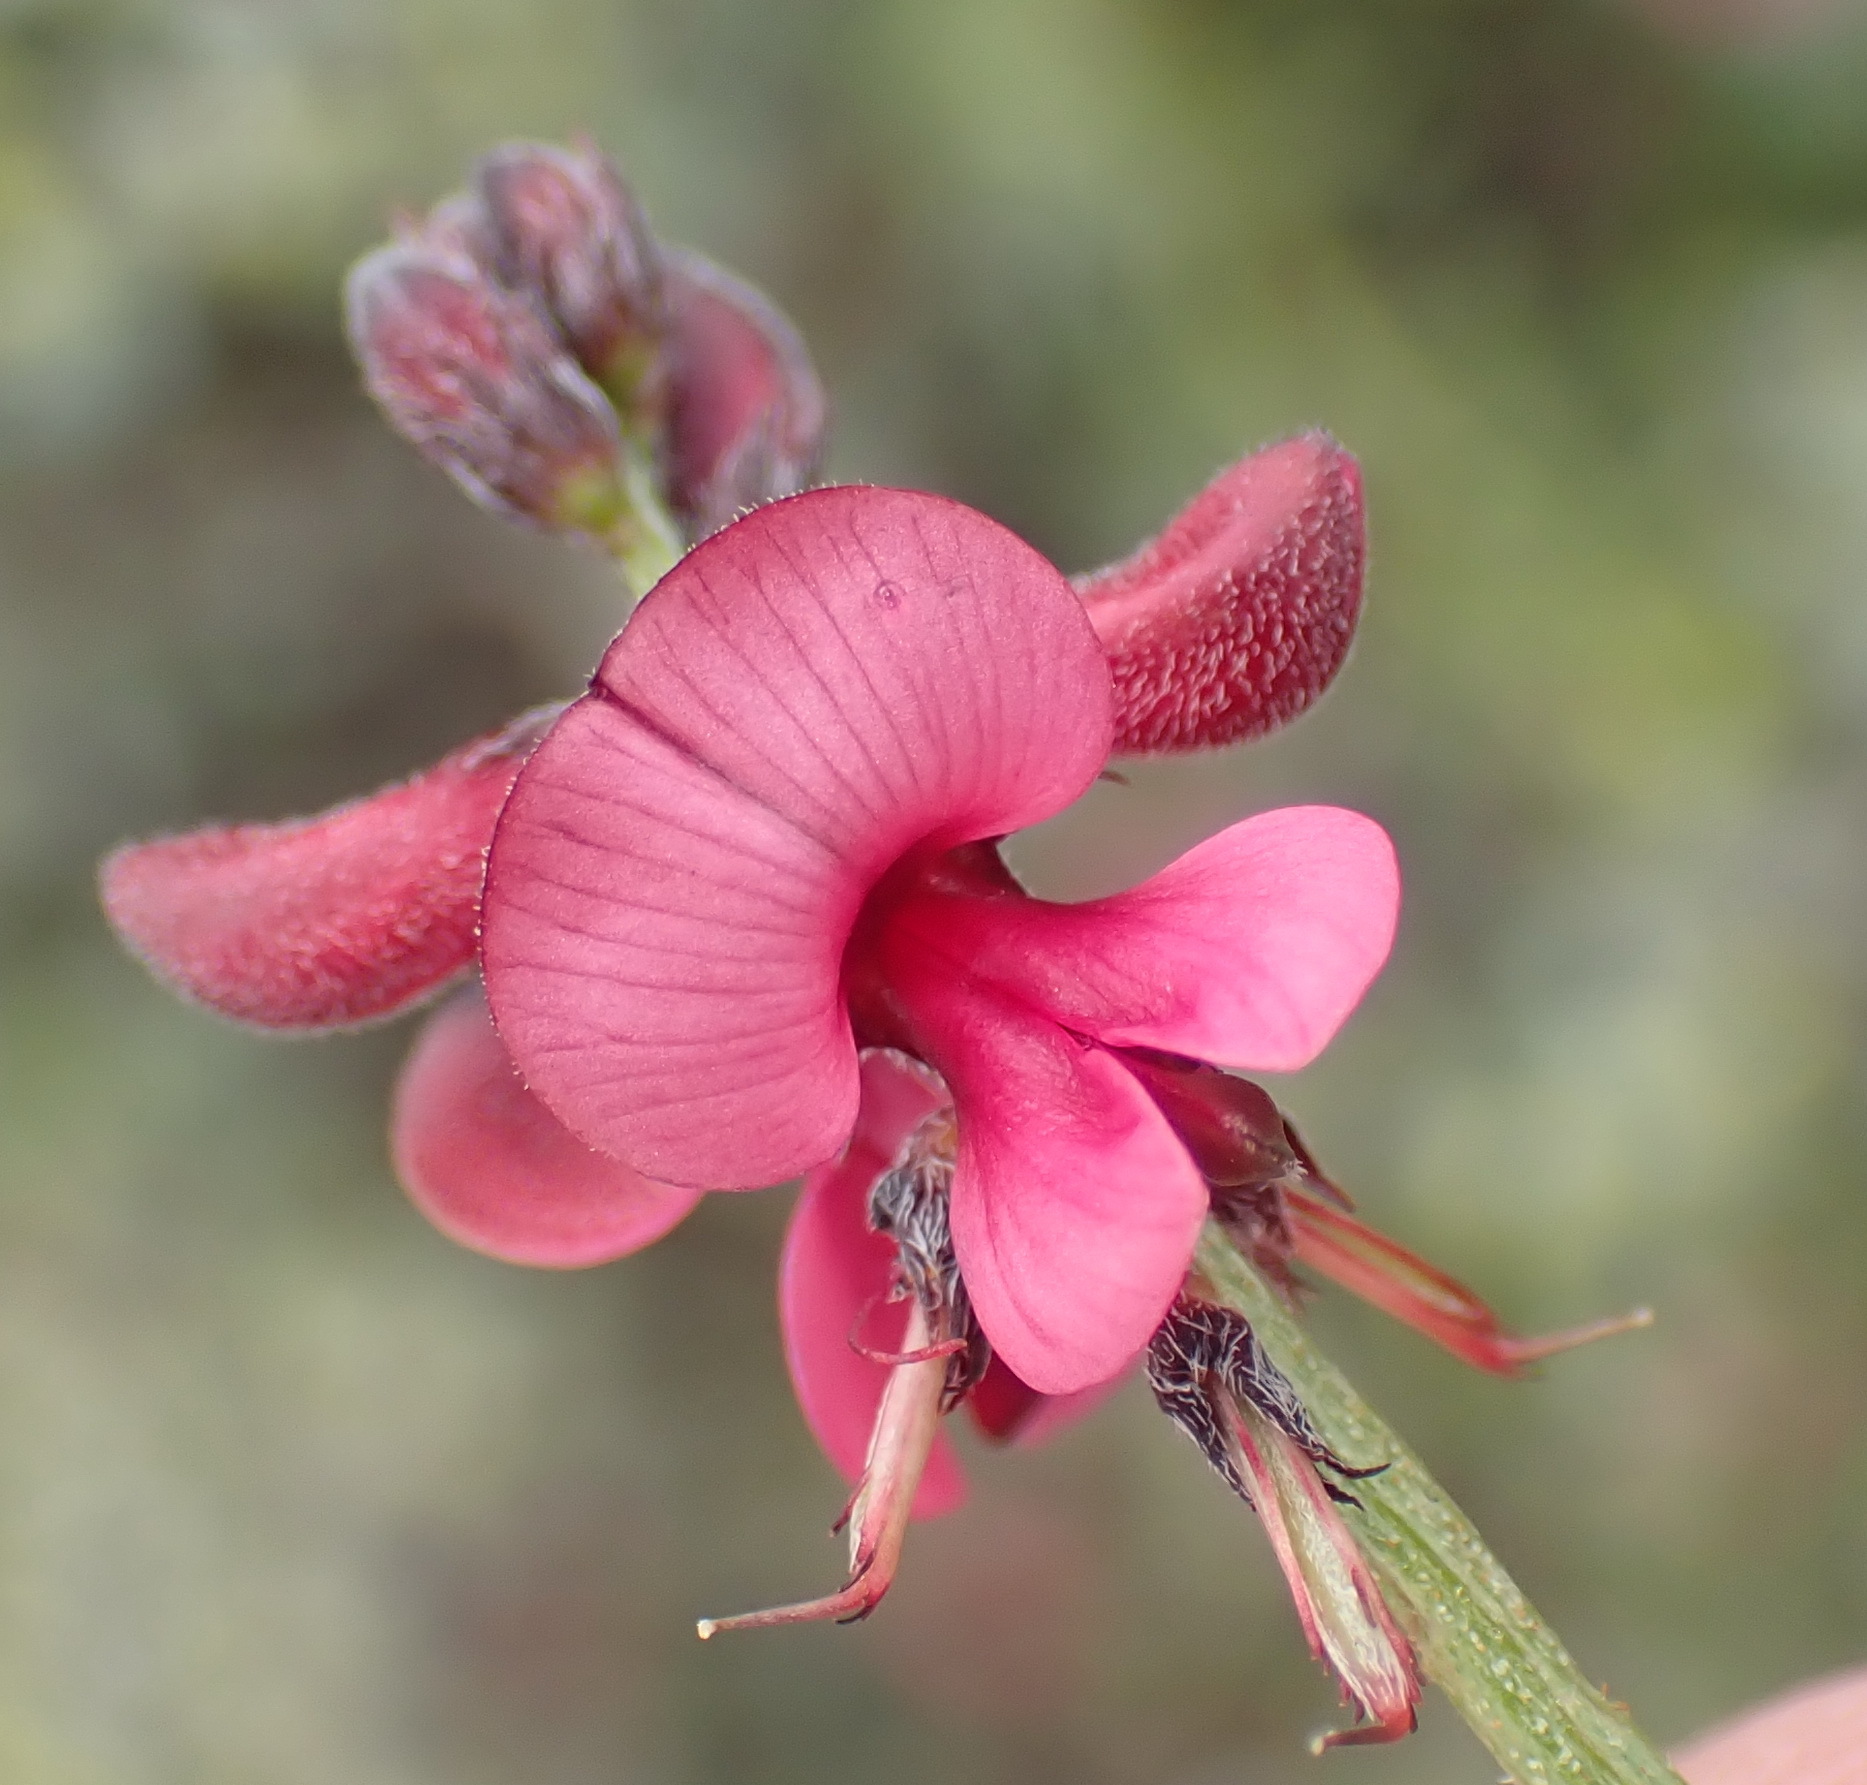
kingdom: Plantae
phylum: Tracheophyta
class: Magnoliopsida
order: Fabales
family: Fabaceae
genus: Indigofera
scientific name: Indigofera heterophylla
